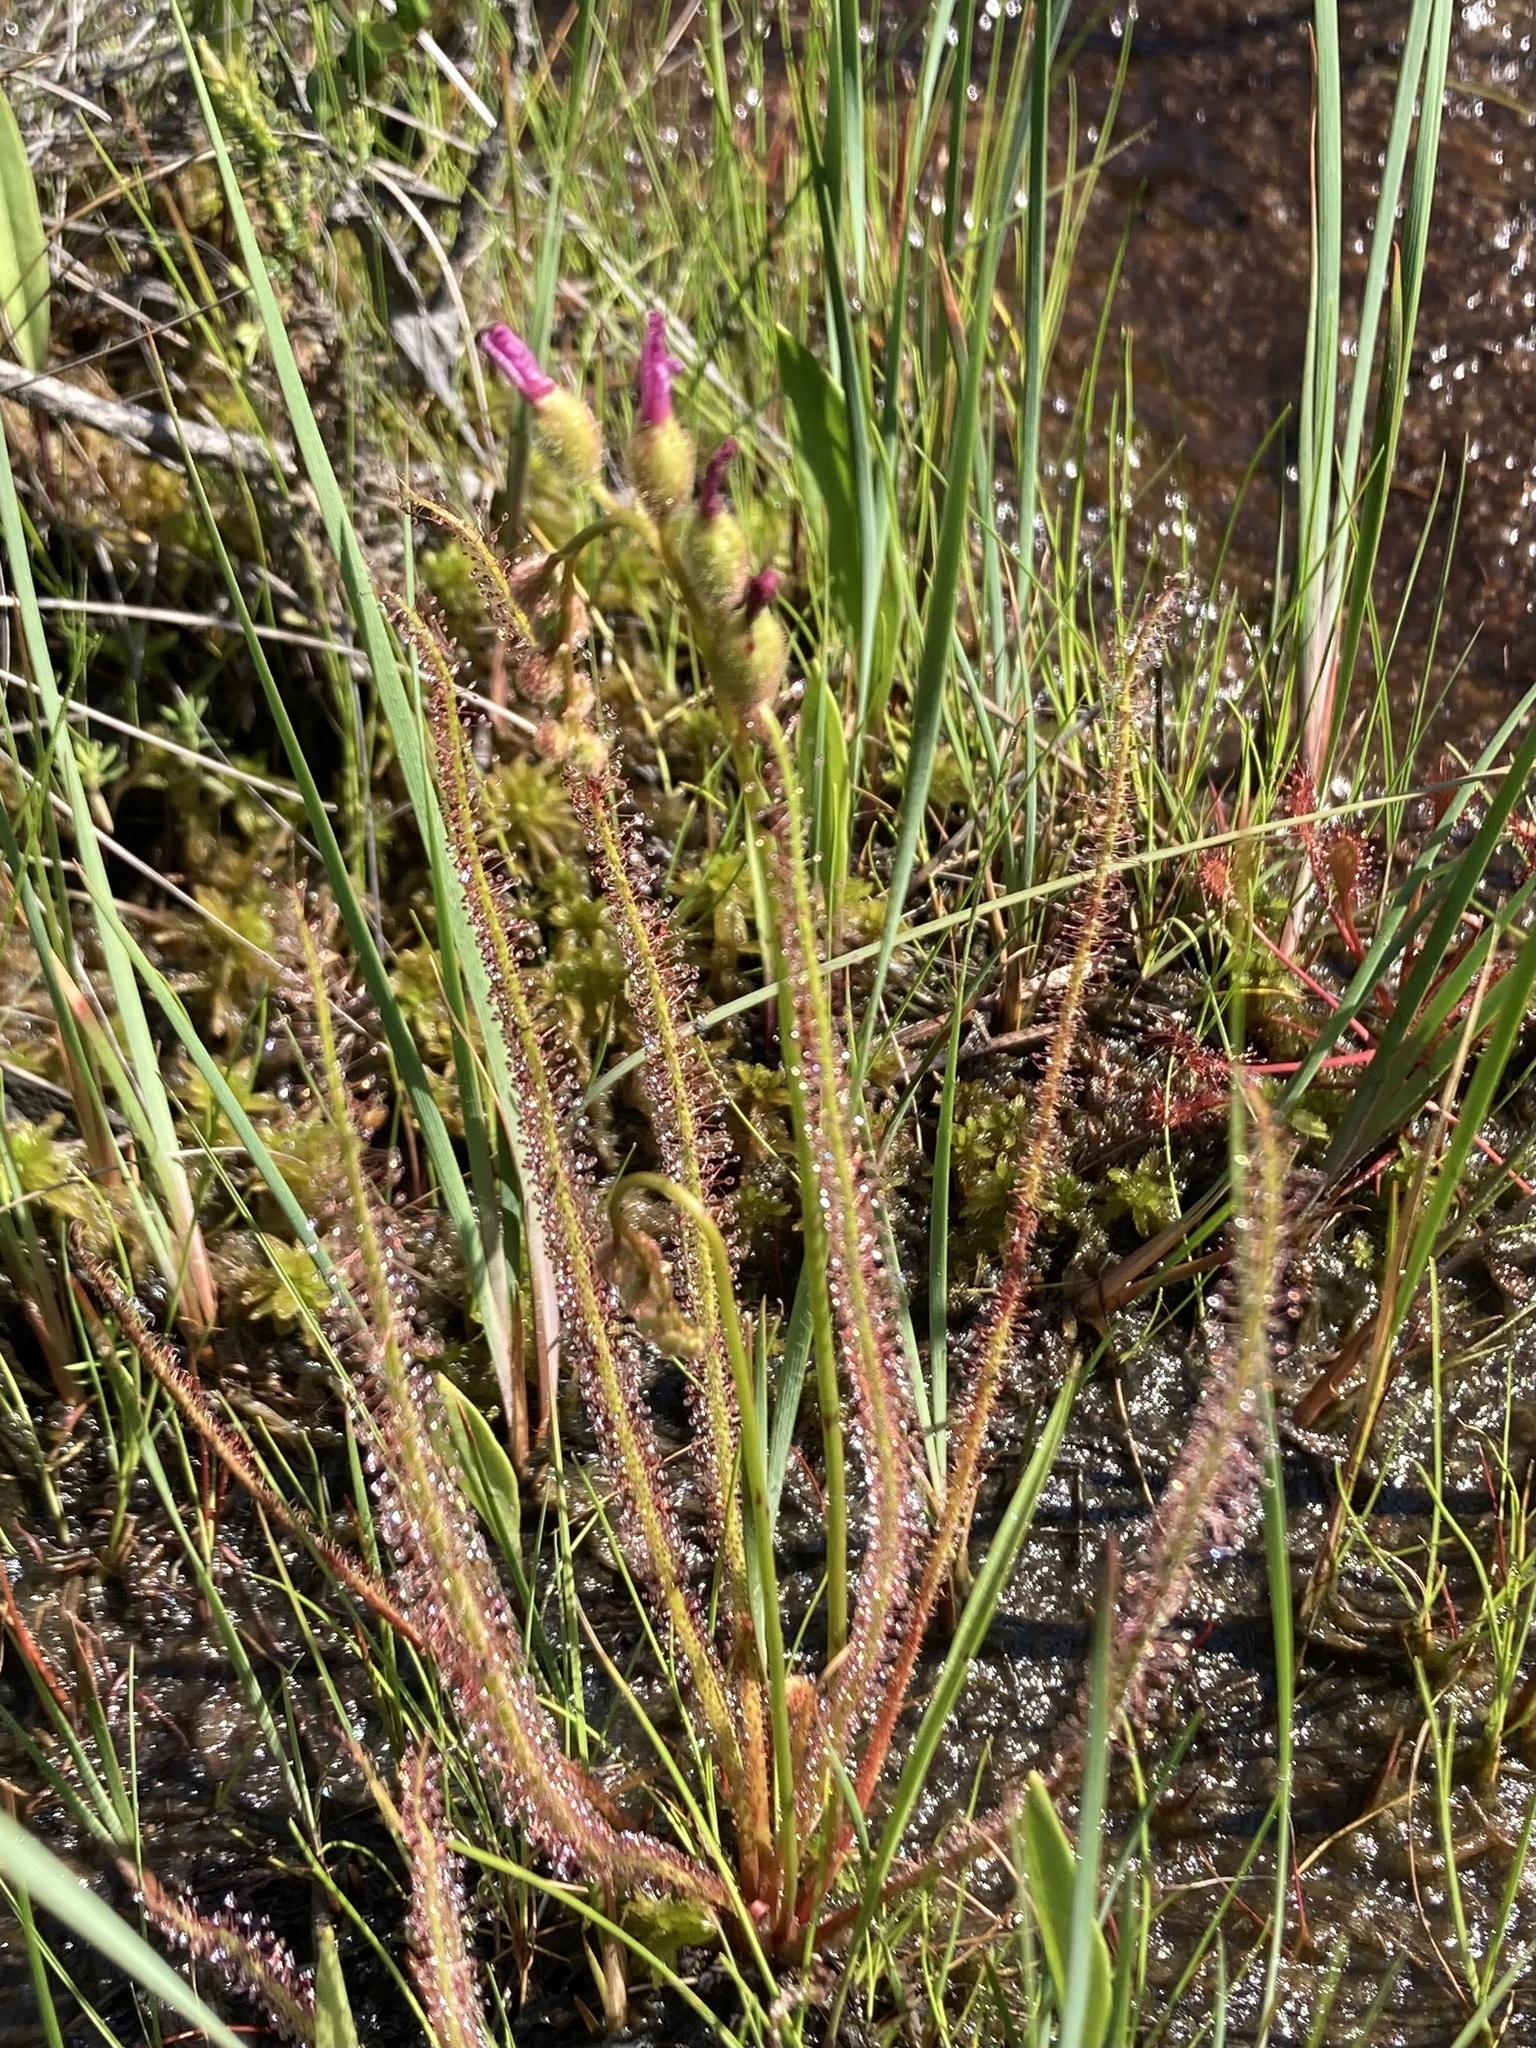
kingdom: Plantae
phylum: Tracheophyta
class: Magnoliopsida
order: Caryophyllales
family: Droseraceae
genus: Drosera
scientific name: Drosera filiformis
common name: Dew-thread
